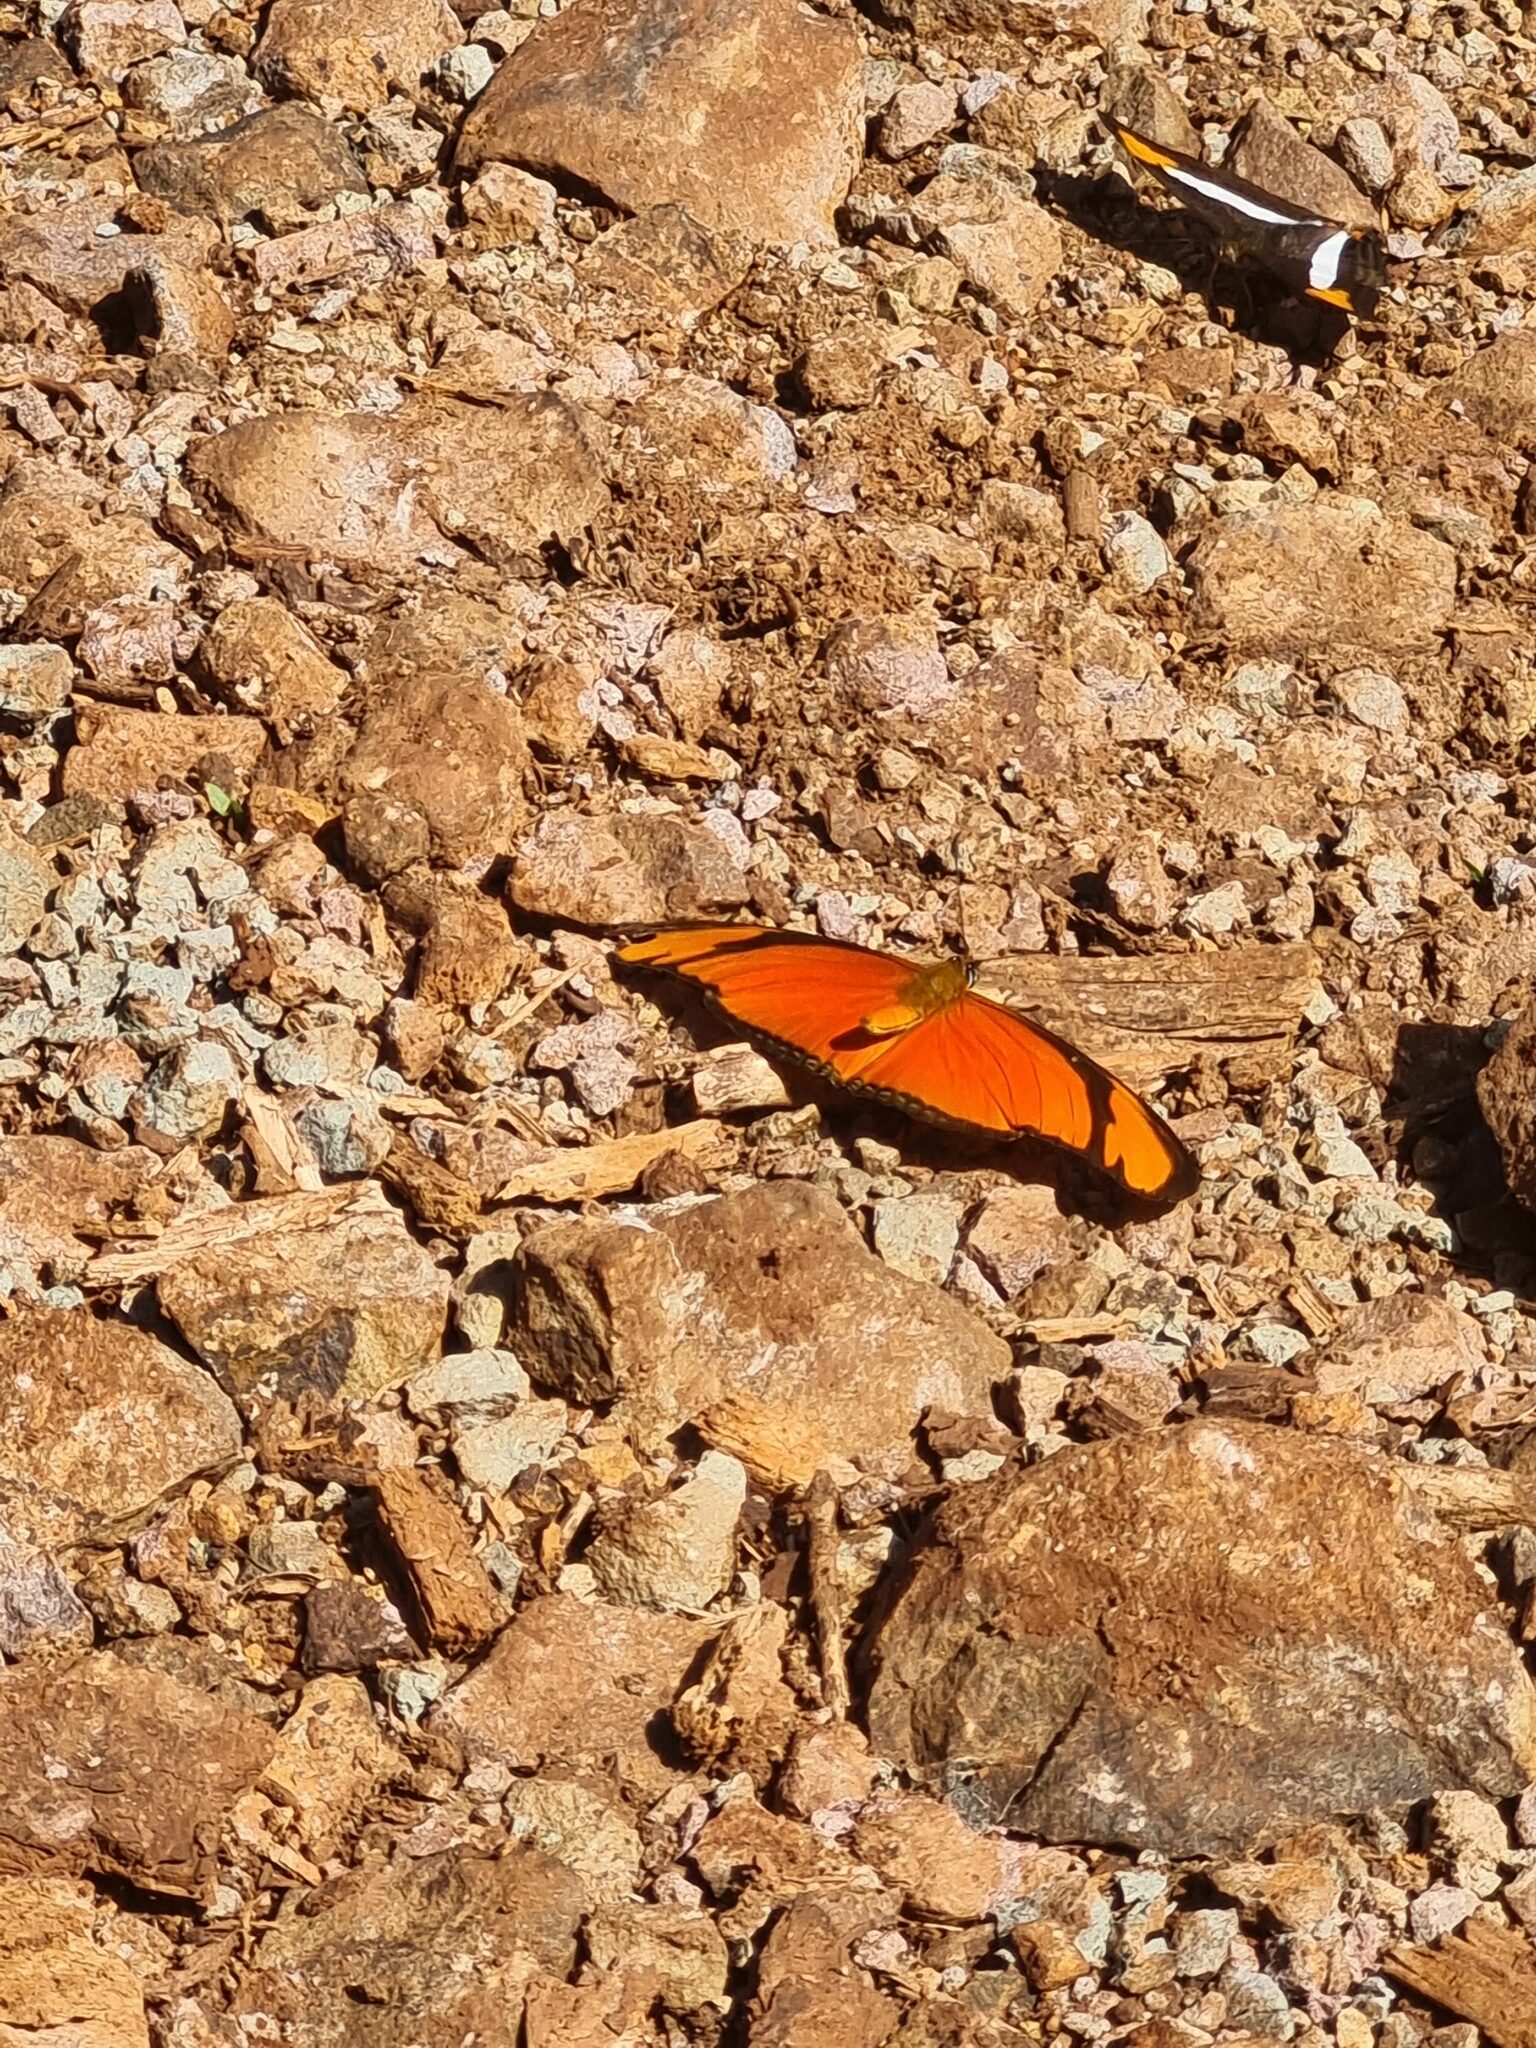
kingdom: Animalia
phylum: Arthropoda
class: Insecta
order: Lepidoptera
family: Nymphalidae
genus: Dryas
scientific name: Dryas iulia
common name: Flambeau
